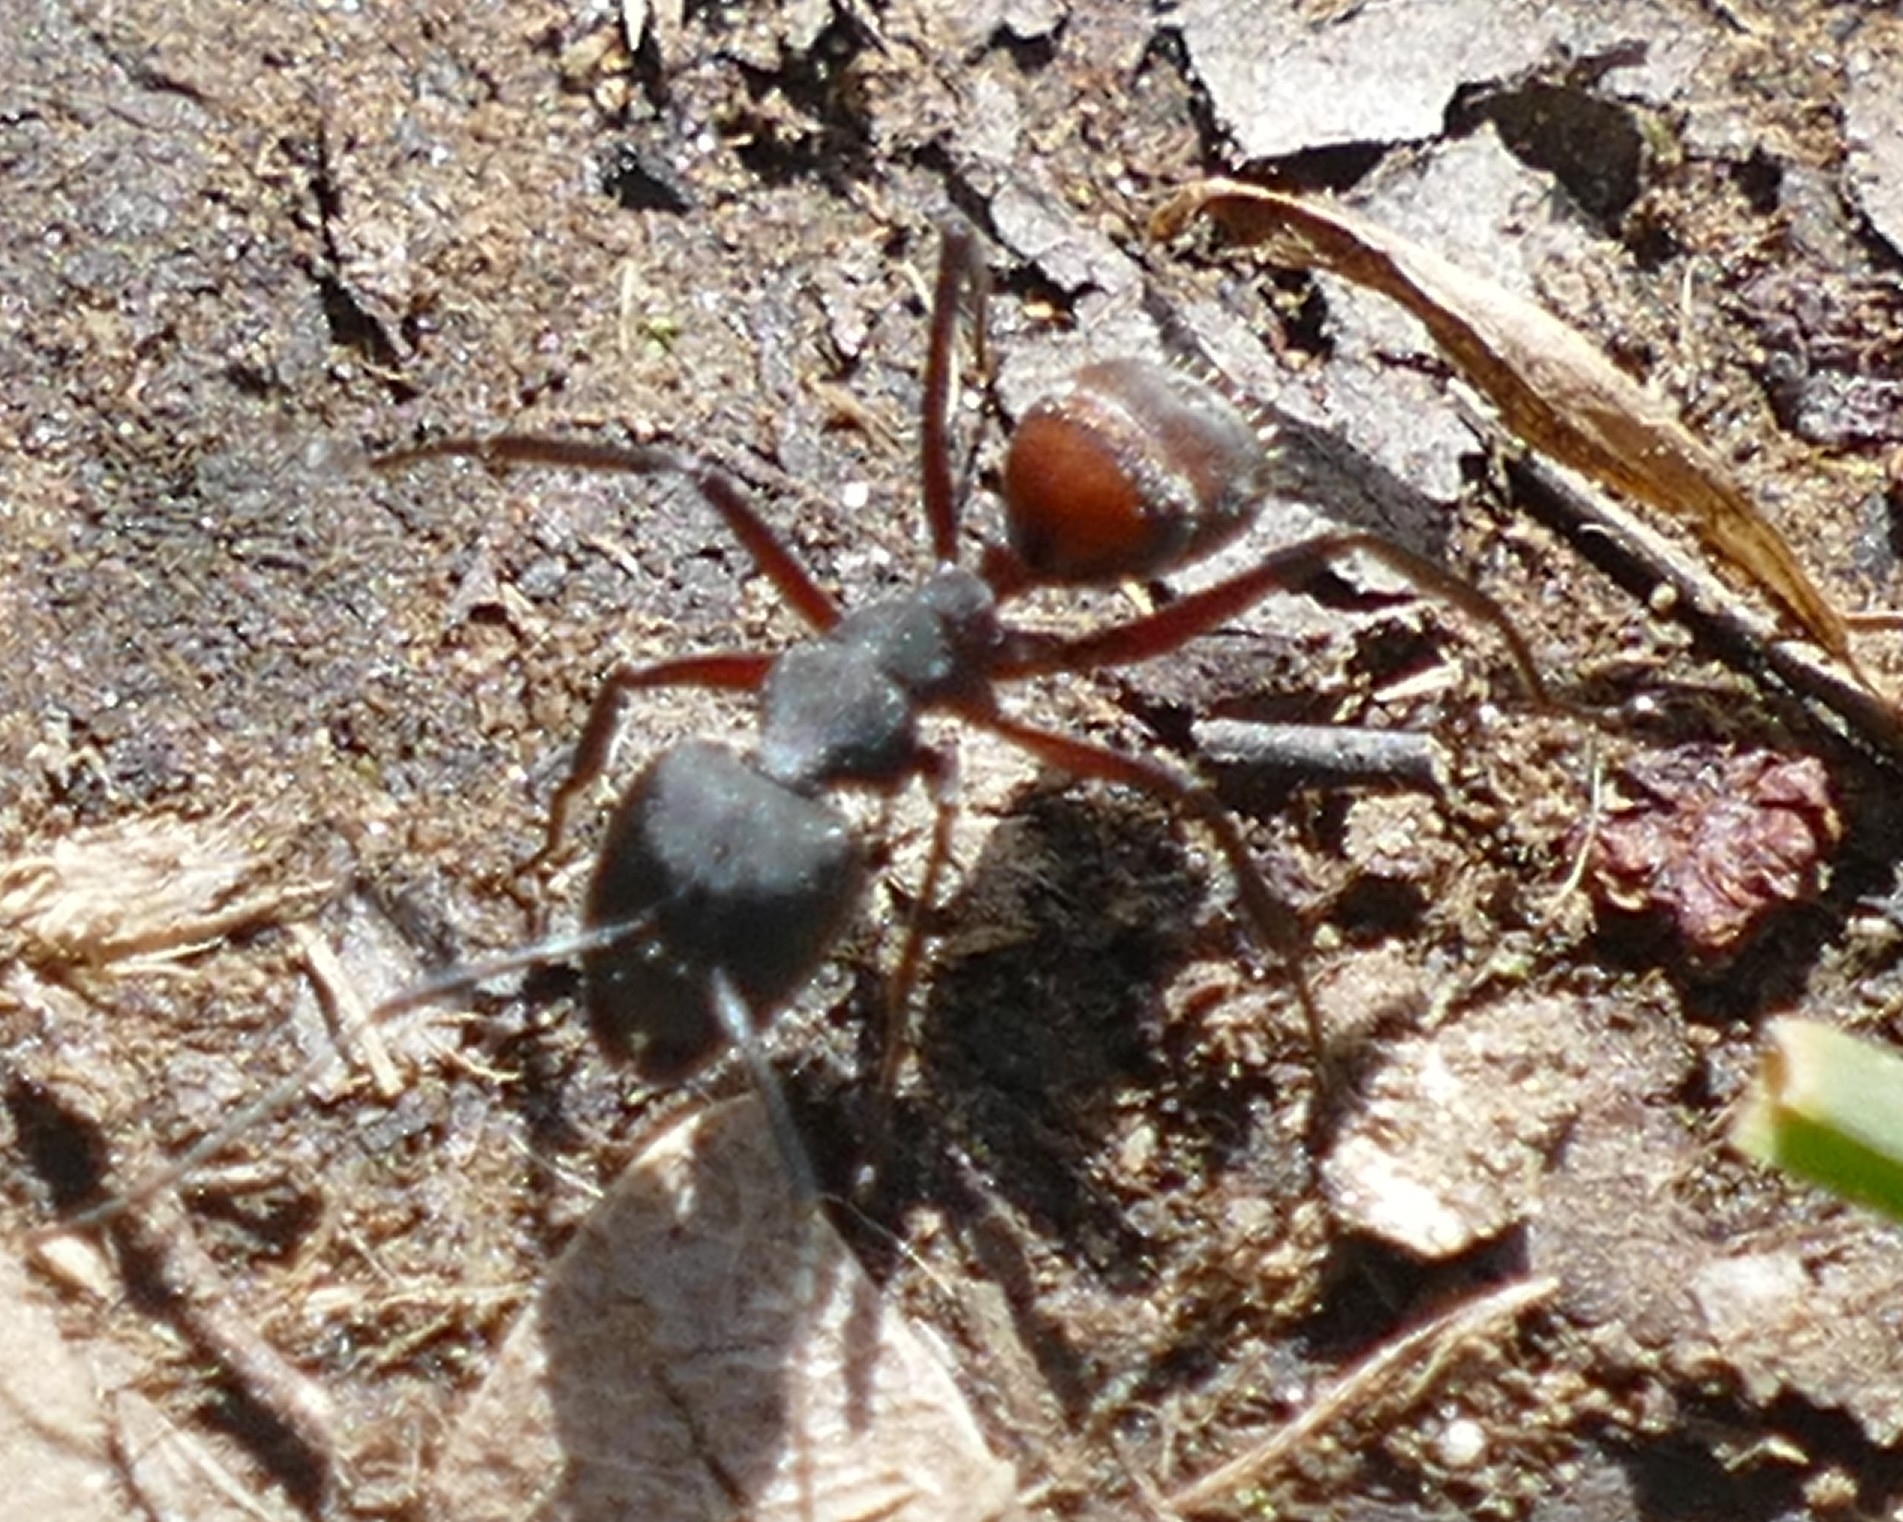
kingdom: Animalia
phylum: Arthropoda
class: Insecta
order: Hymenoptera
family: Formicidae
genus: Camponotus
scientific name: Camponotus cruentatus
